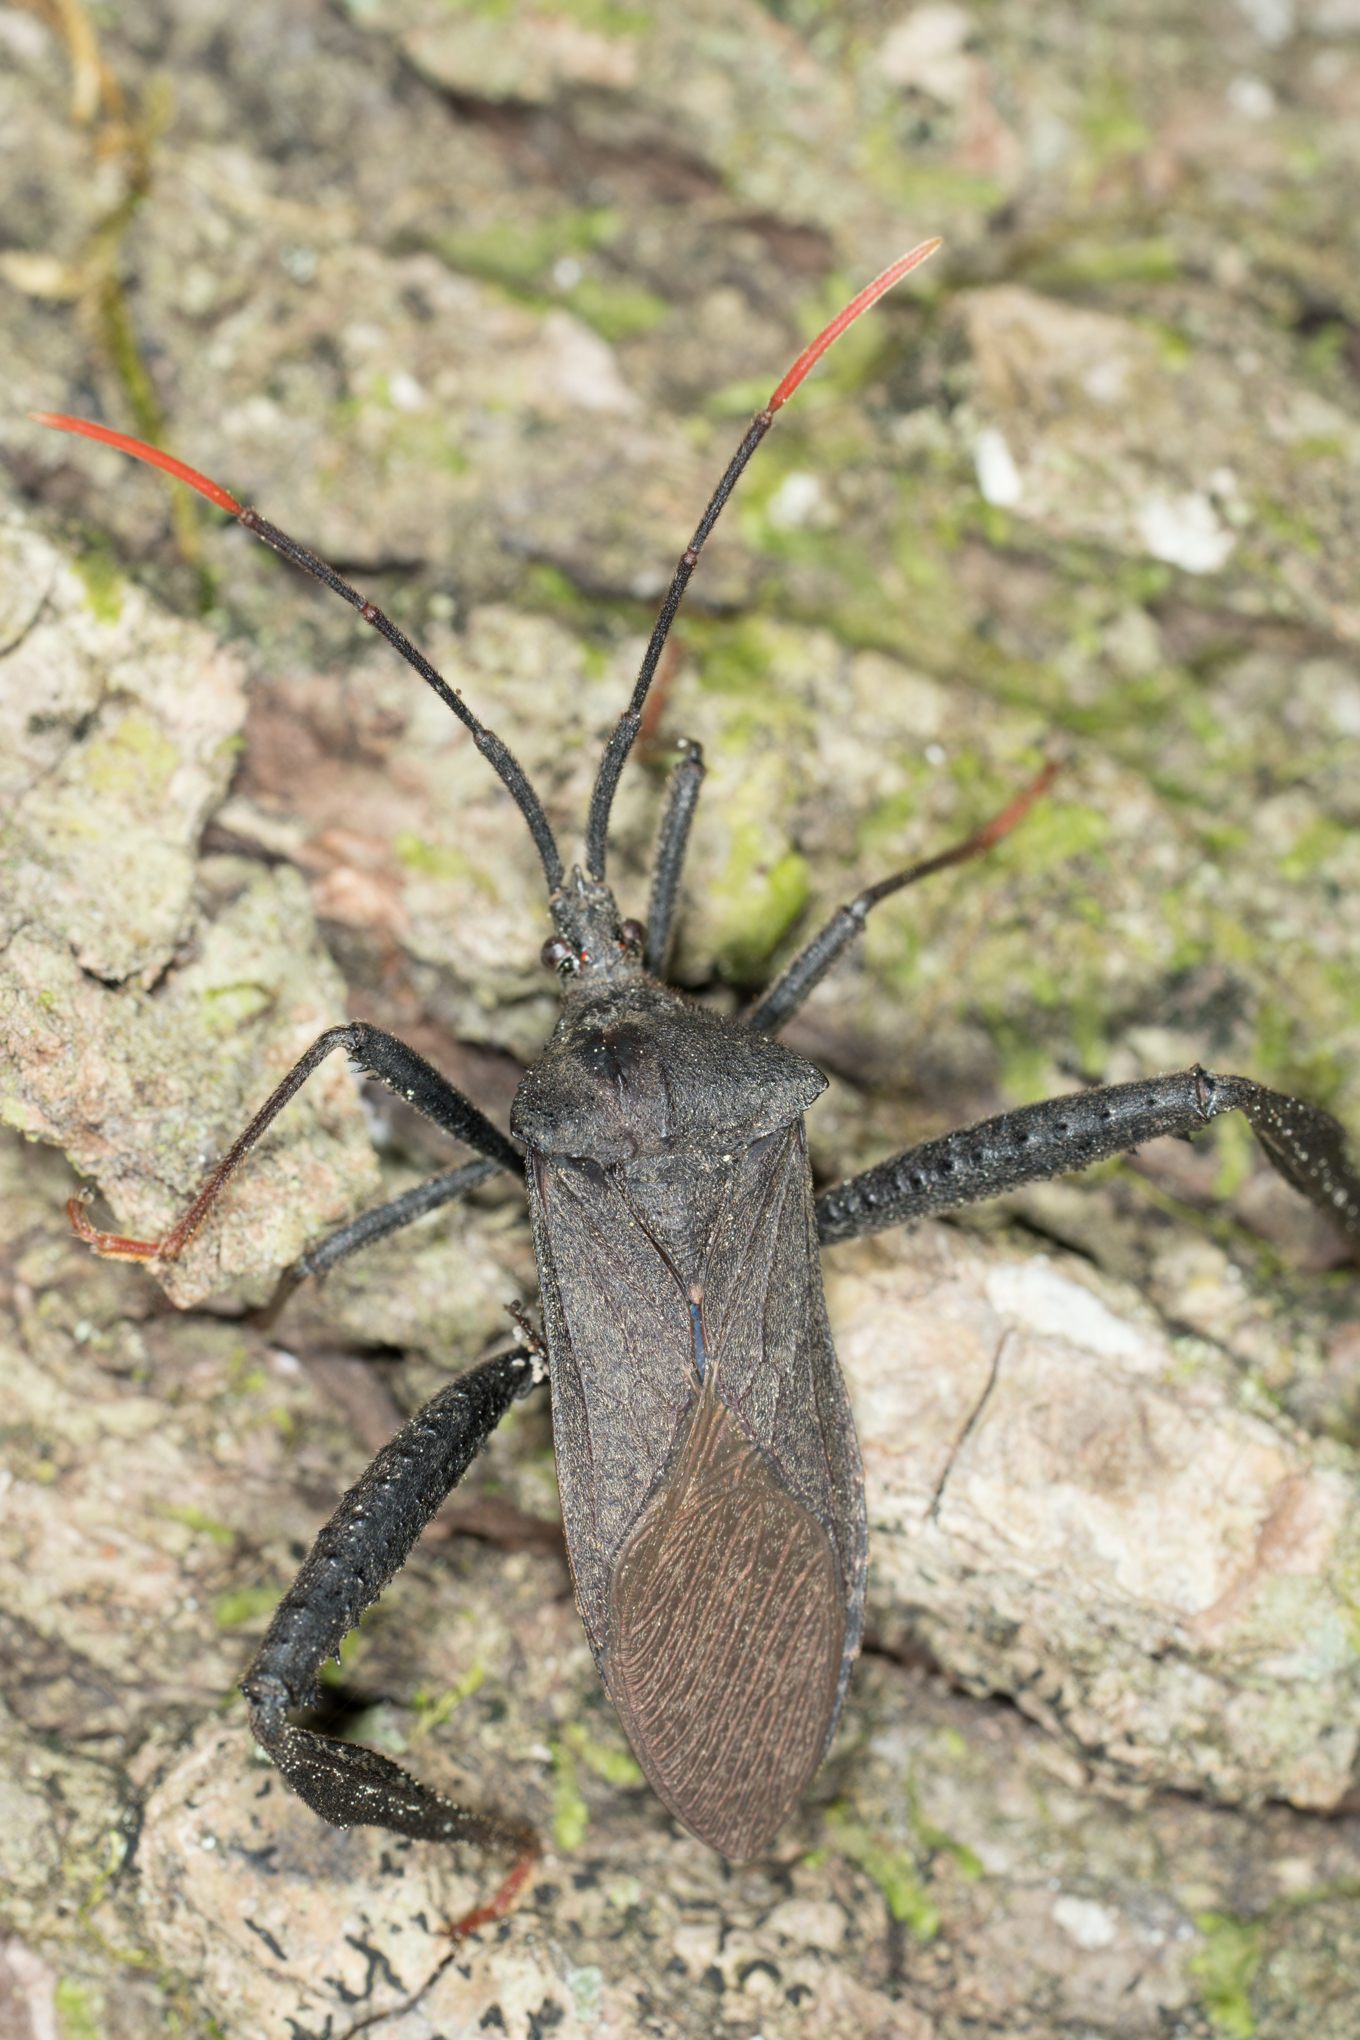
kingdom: Animalia
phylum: Arthropoda
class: Insecta
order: Hemiptera
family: Coreidae
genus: Acanthocephala
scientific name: Acanthocephala terminalis
